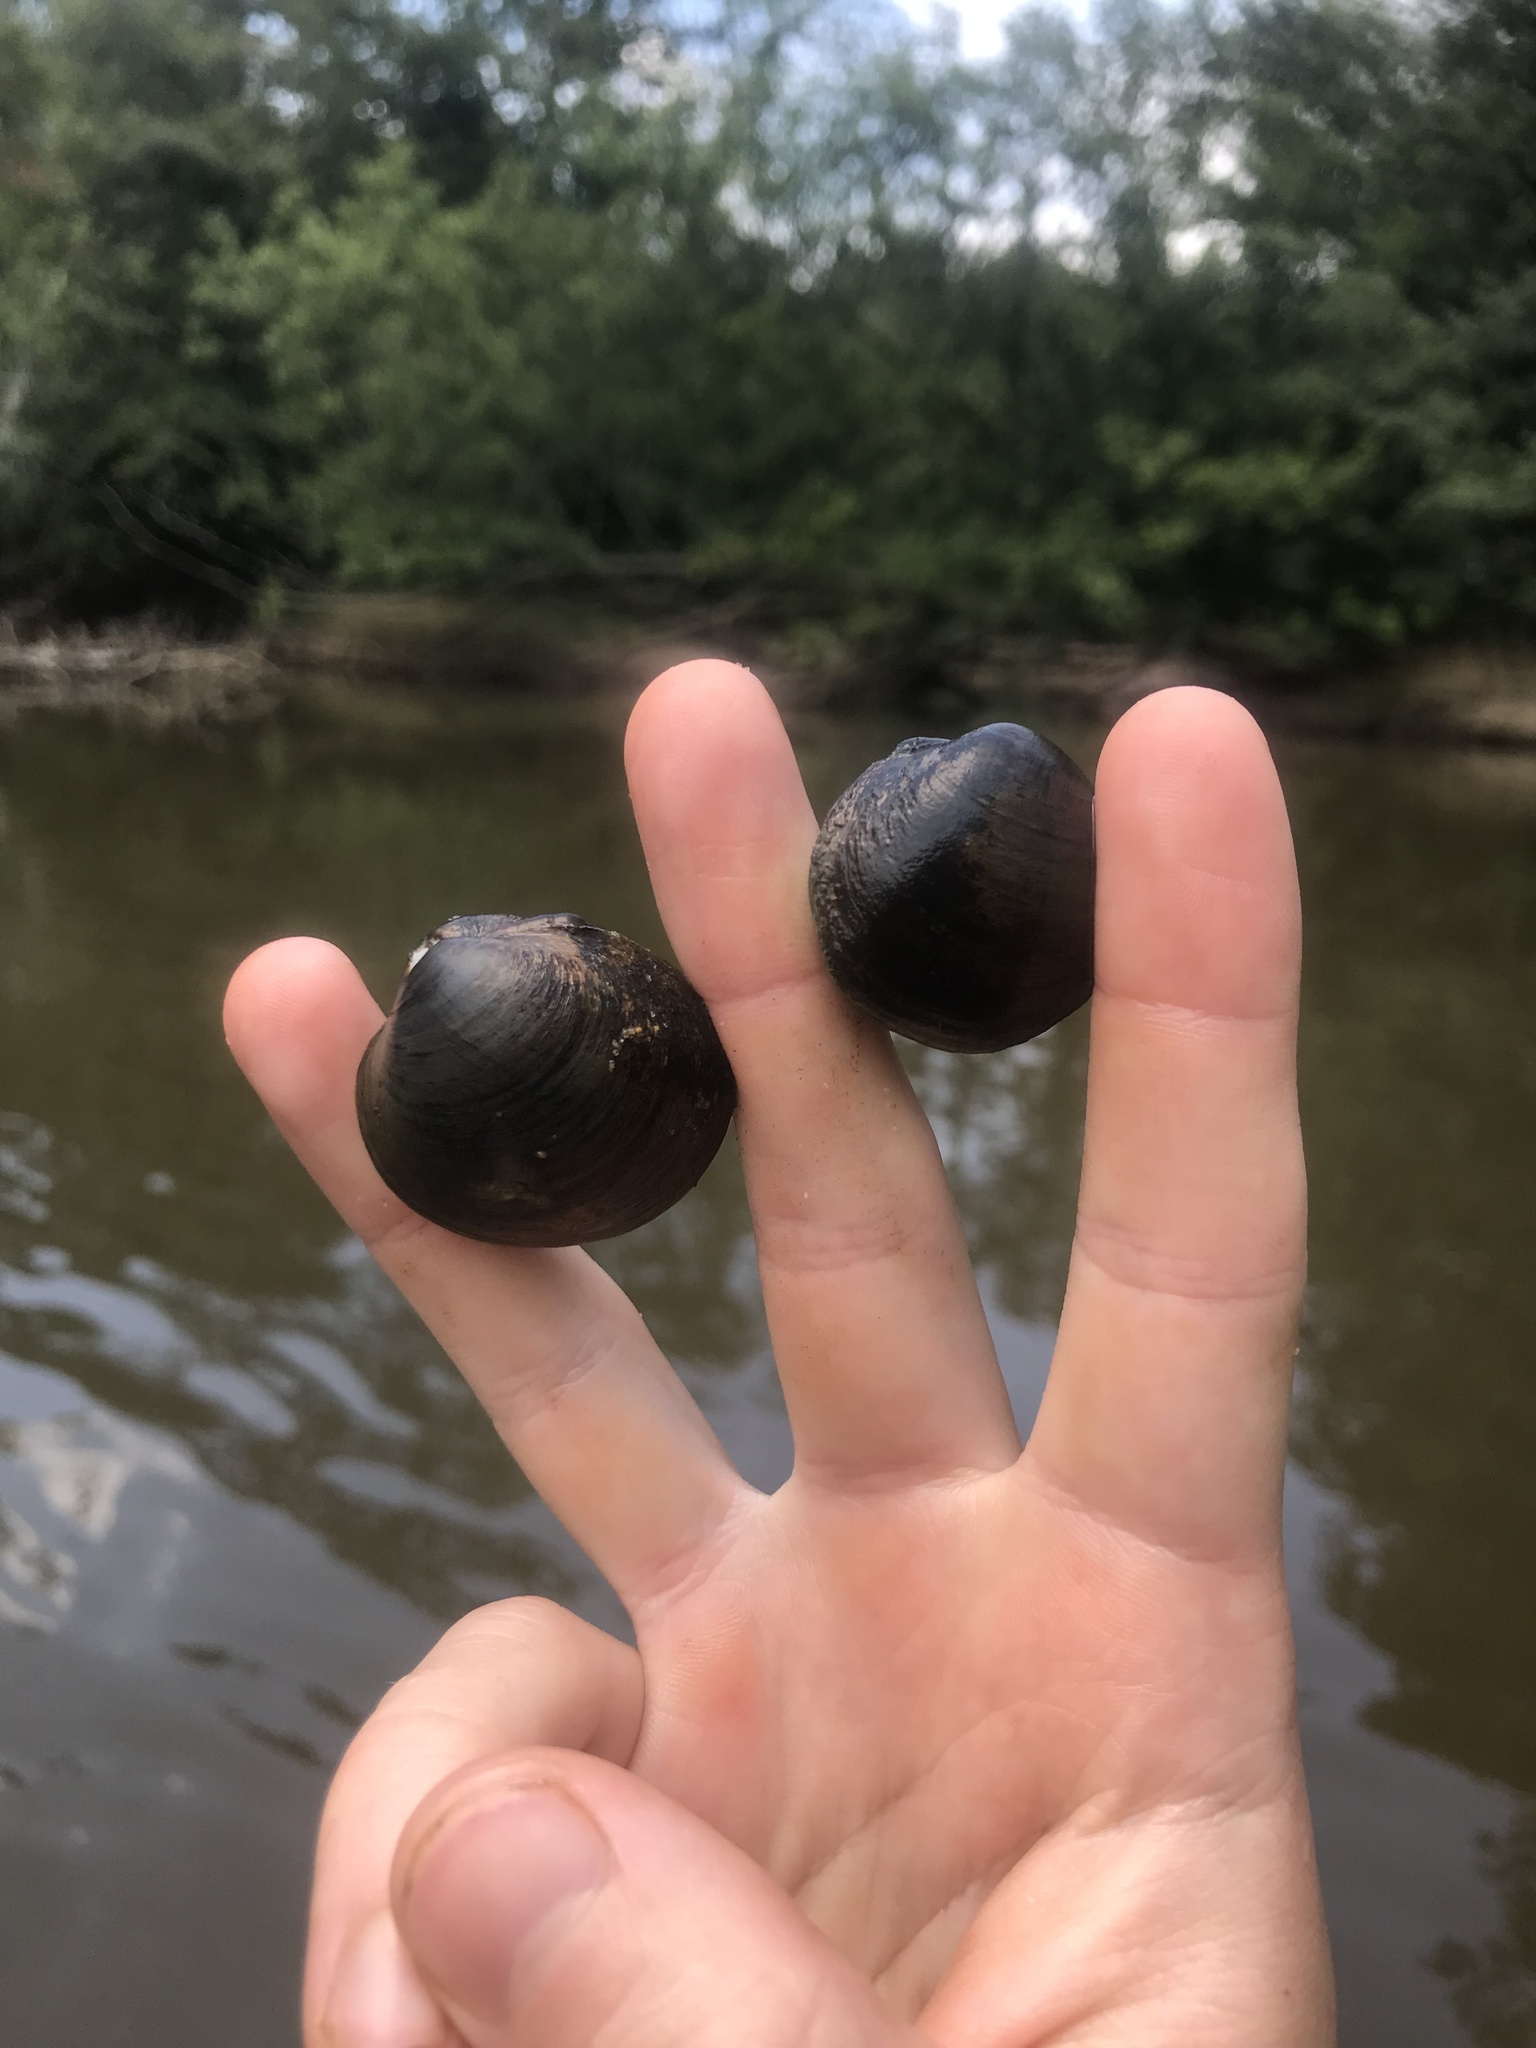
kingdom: Animalia
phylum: Mollusca
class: Bivalvia
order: Unionida
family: Unionidae
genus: Obovaria
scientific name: Obovaria unicolor
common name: Alabama hickorynut
